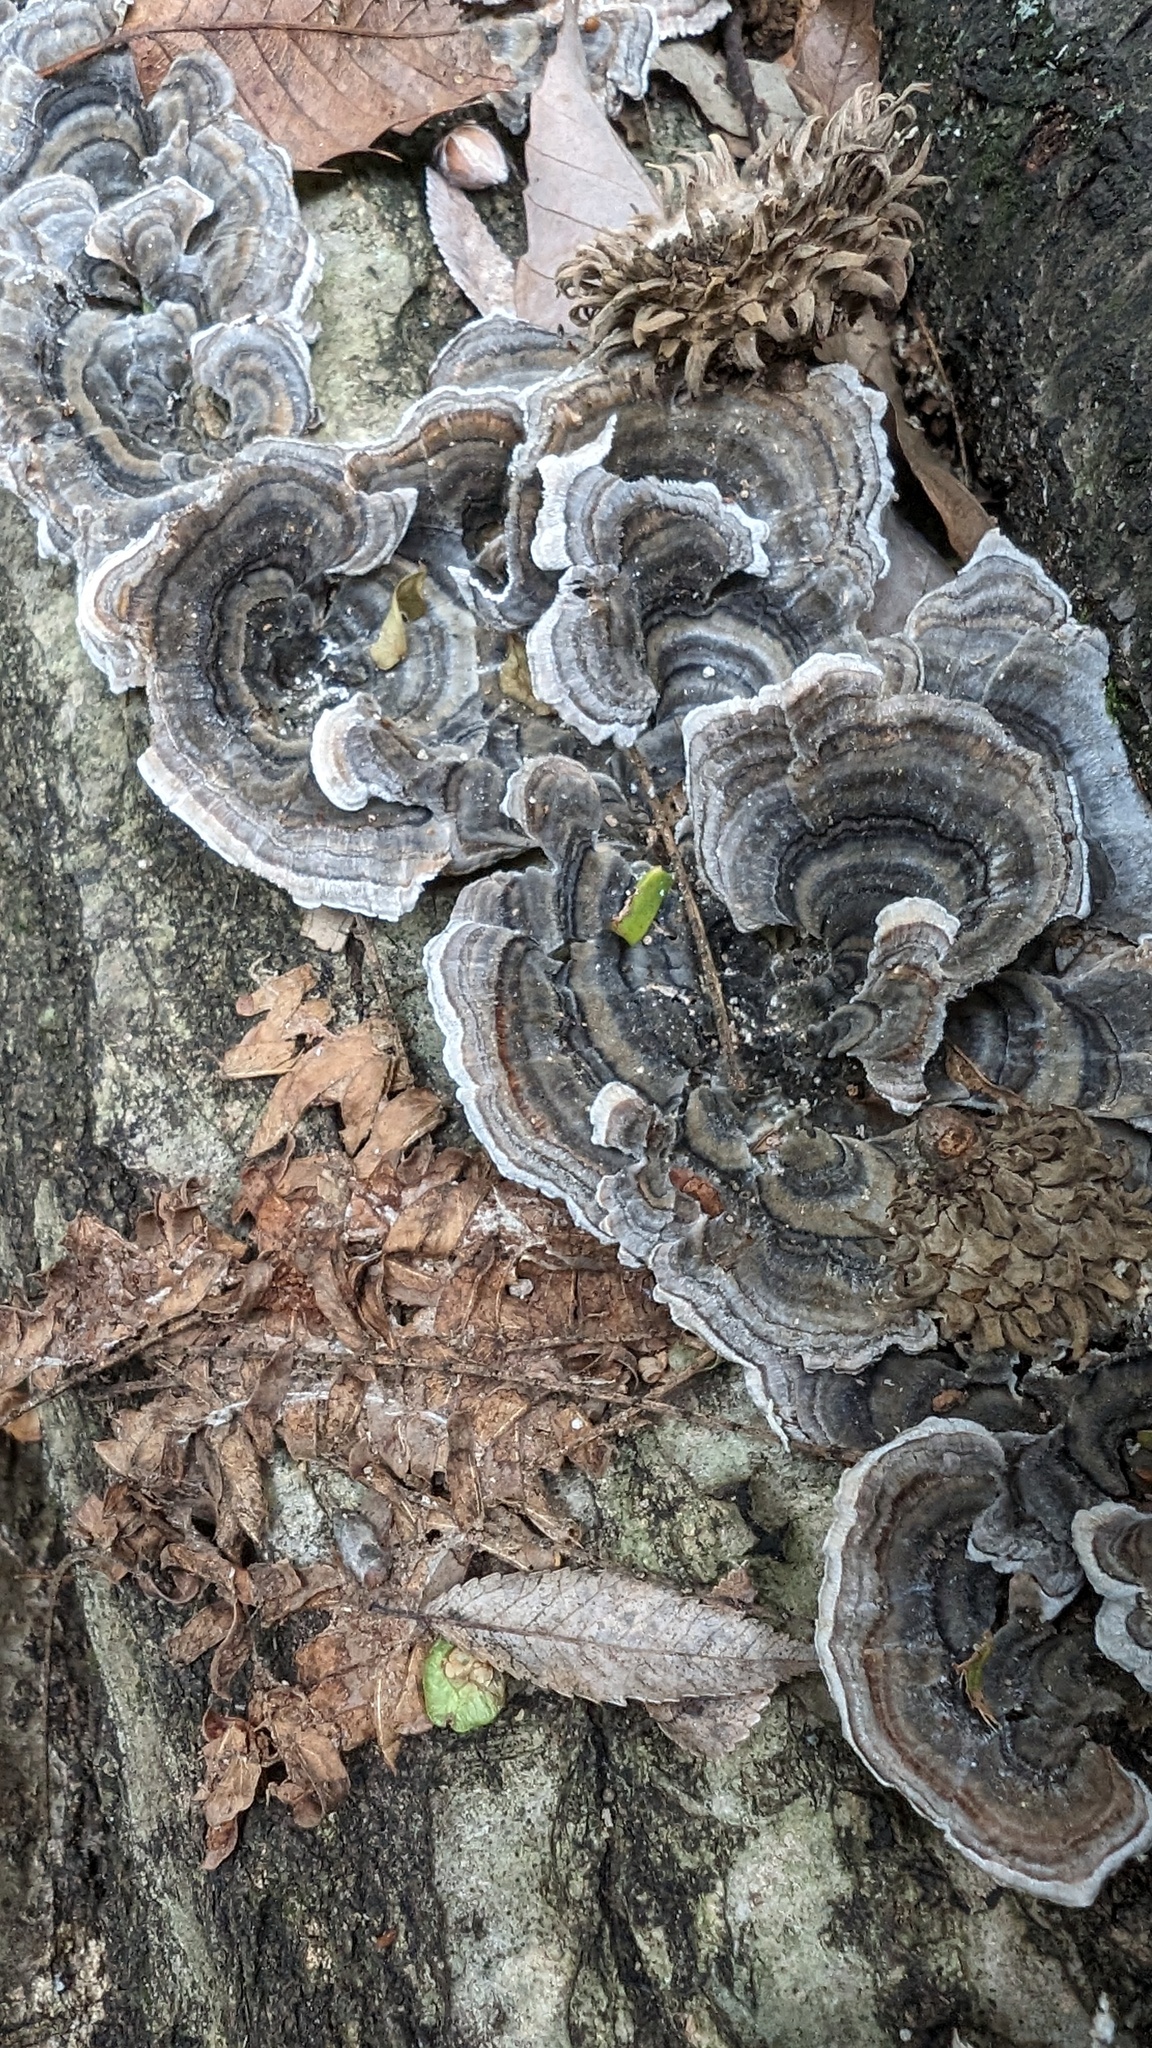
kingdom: Fungi
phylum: Basidiomycota
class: Agaricomycetes
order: Polyporales
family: Polyporaceae
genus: Trametes
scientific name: Trametes versicolor
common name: Turkeytail
